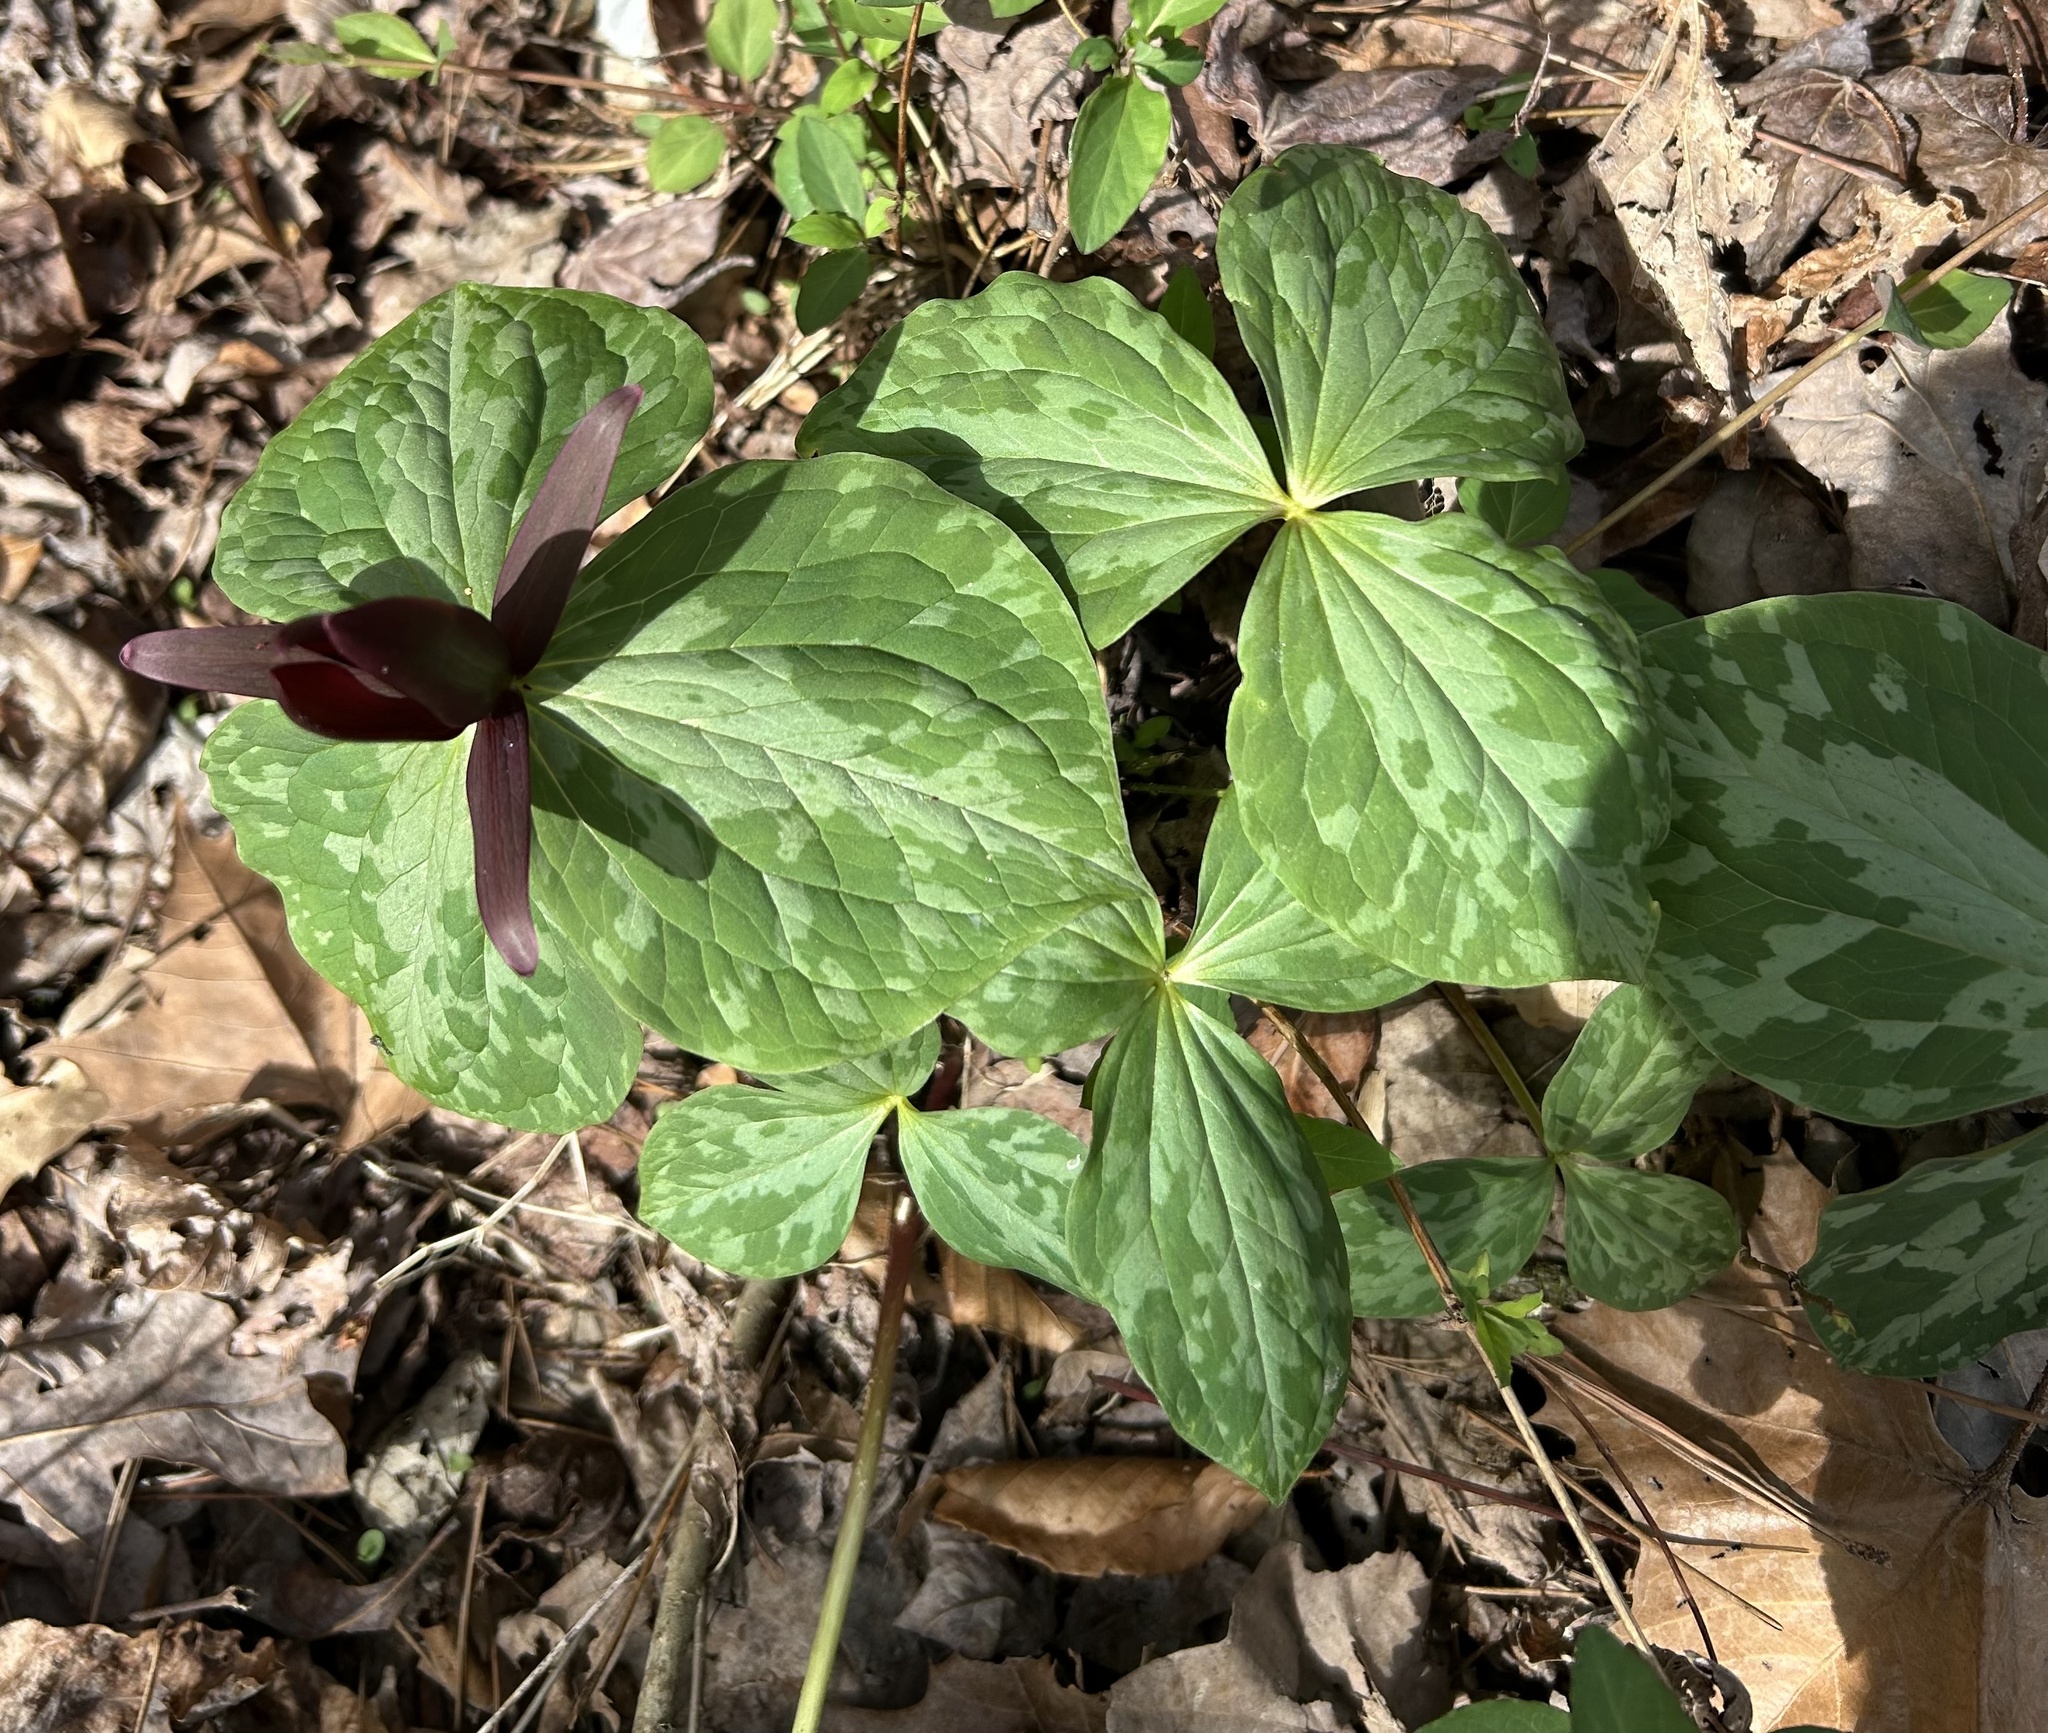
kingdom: Plantae
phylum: Tracheophyta
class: Liliopsida
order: Liliales
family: Melanthiaceae
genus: Trillium
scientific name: Trillium cuneatum
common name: Cuneate trillium
